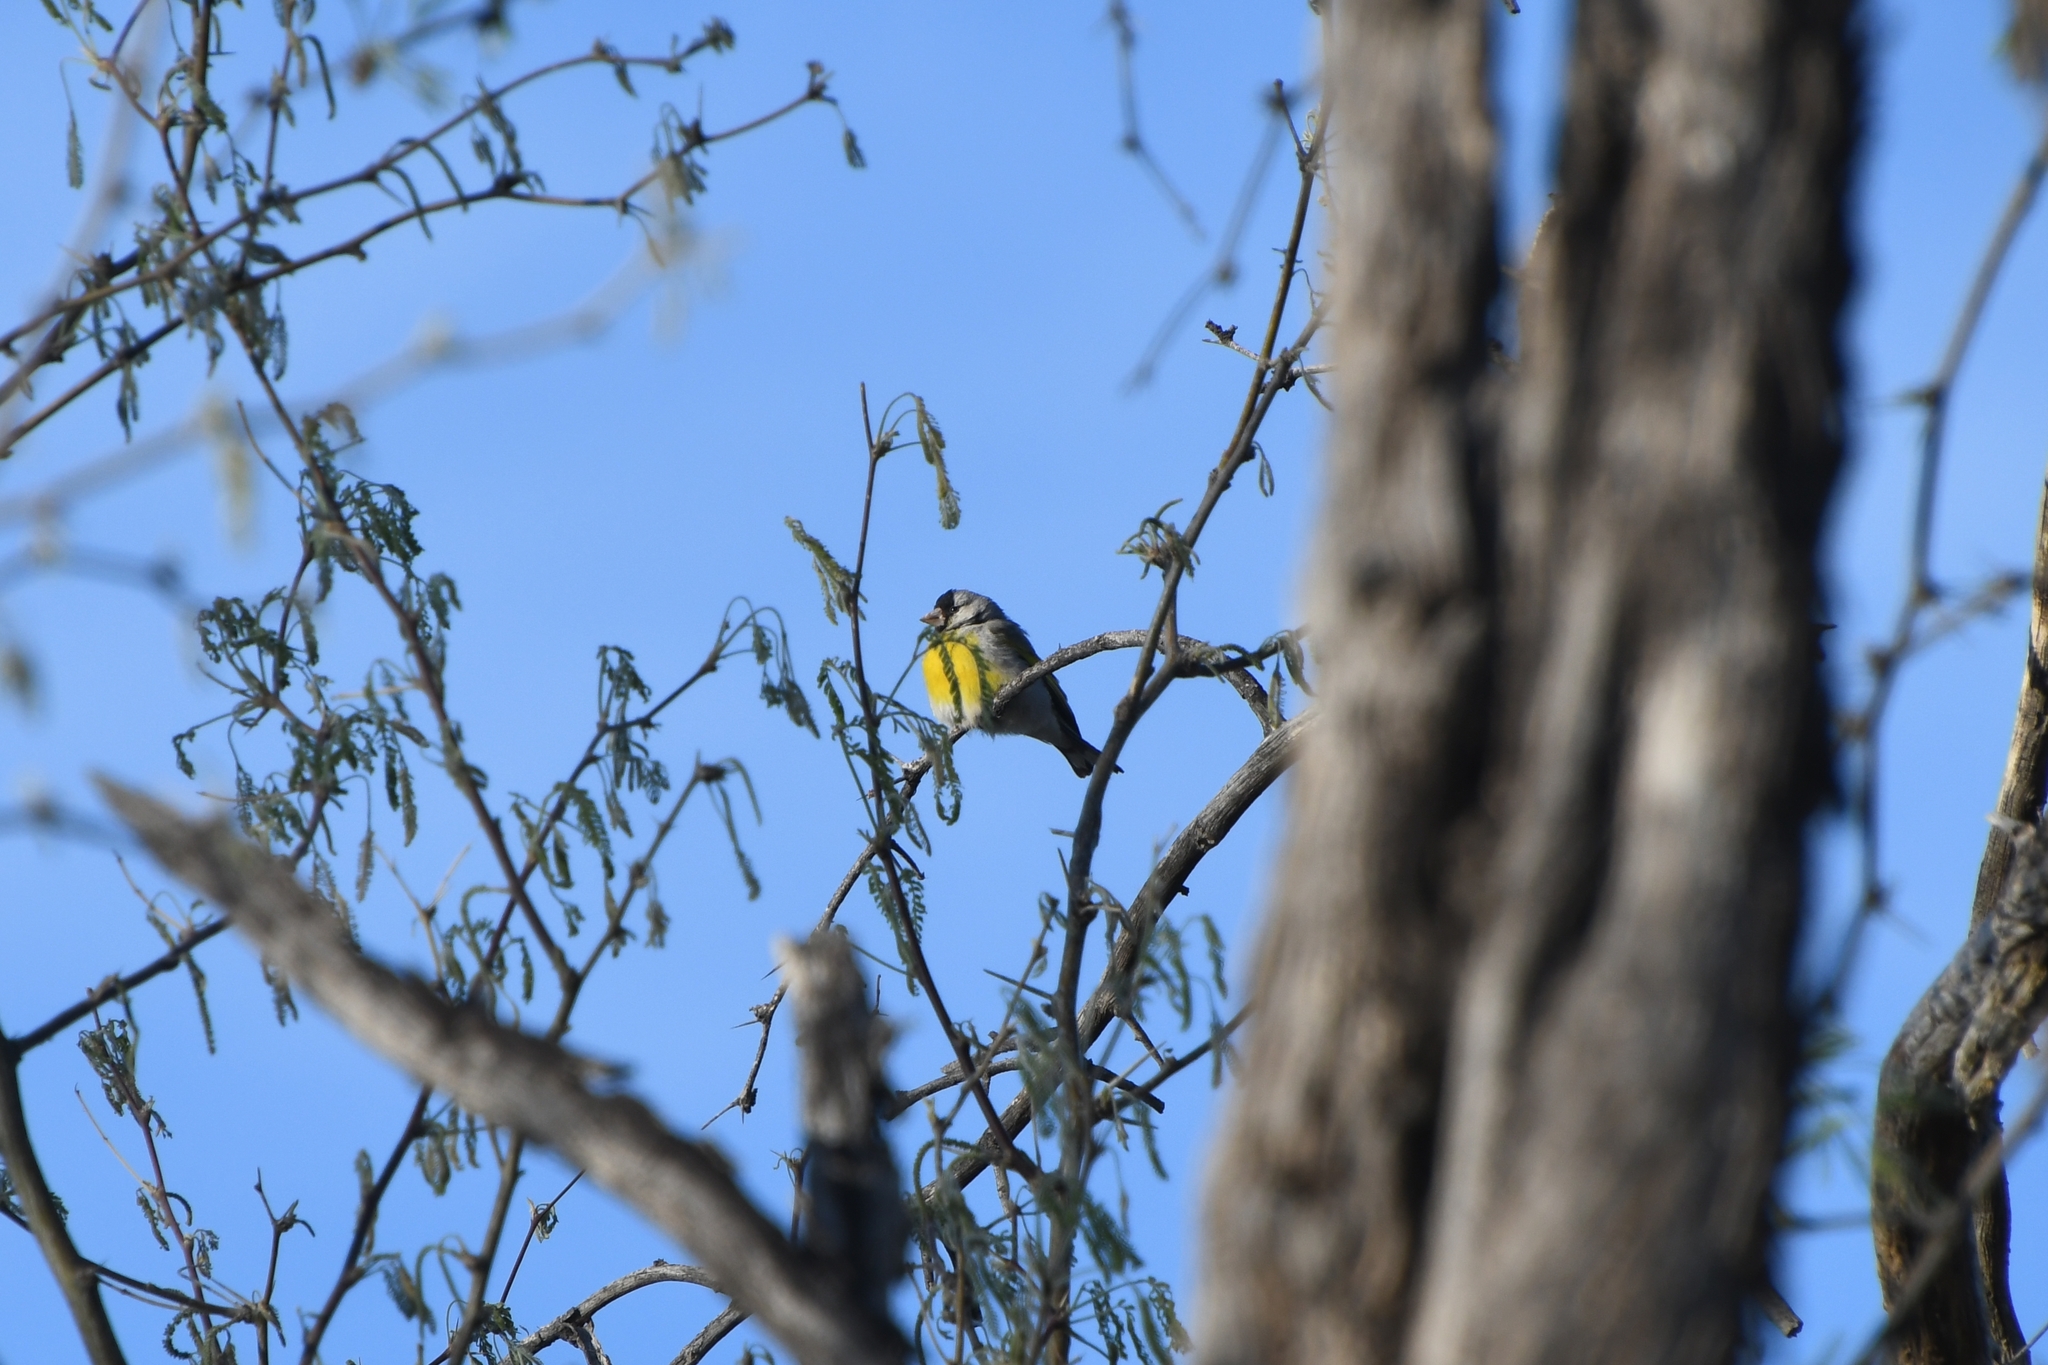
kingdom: Animalia
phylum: Chordata
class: Aves
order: Passeriformes
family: Fringillidae
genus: Spinus
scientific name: Spinus lawrencei
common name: Lawrence's goldfinch
